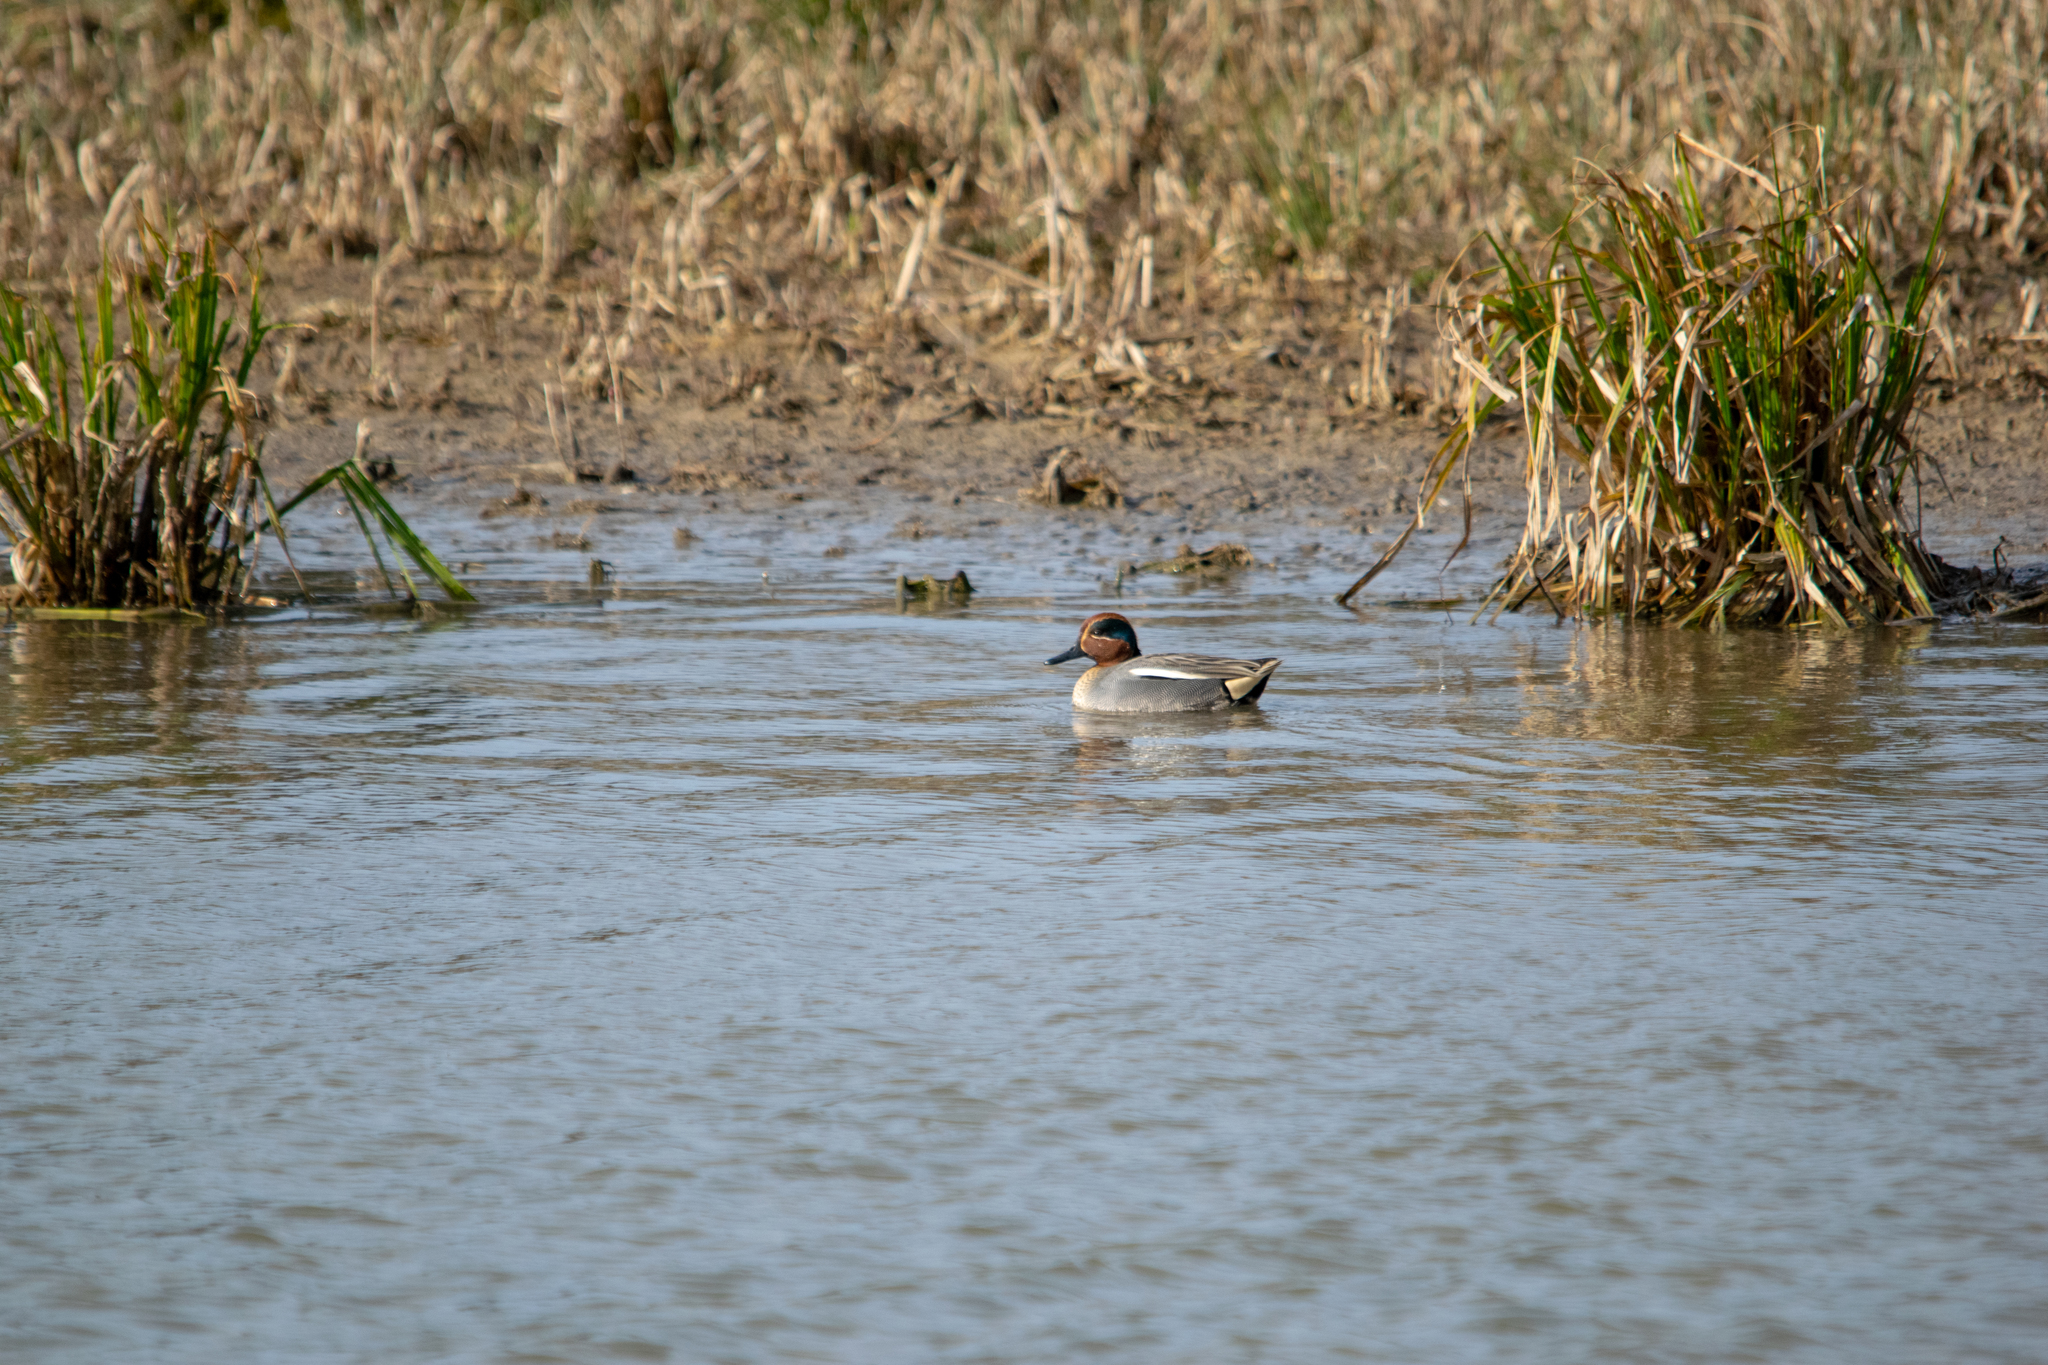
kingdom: Animalia
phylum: Chordata
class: Aves
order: Anseriformes
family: Anatidae
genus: Anas
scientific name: Anas crecca
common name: Eurasian teal
